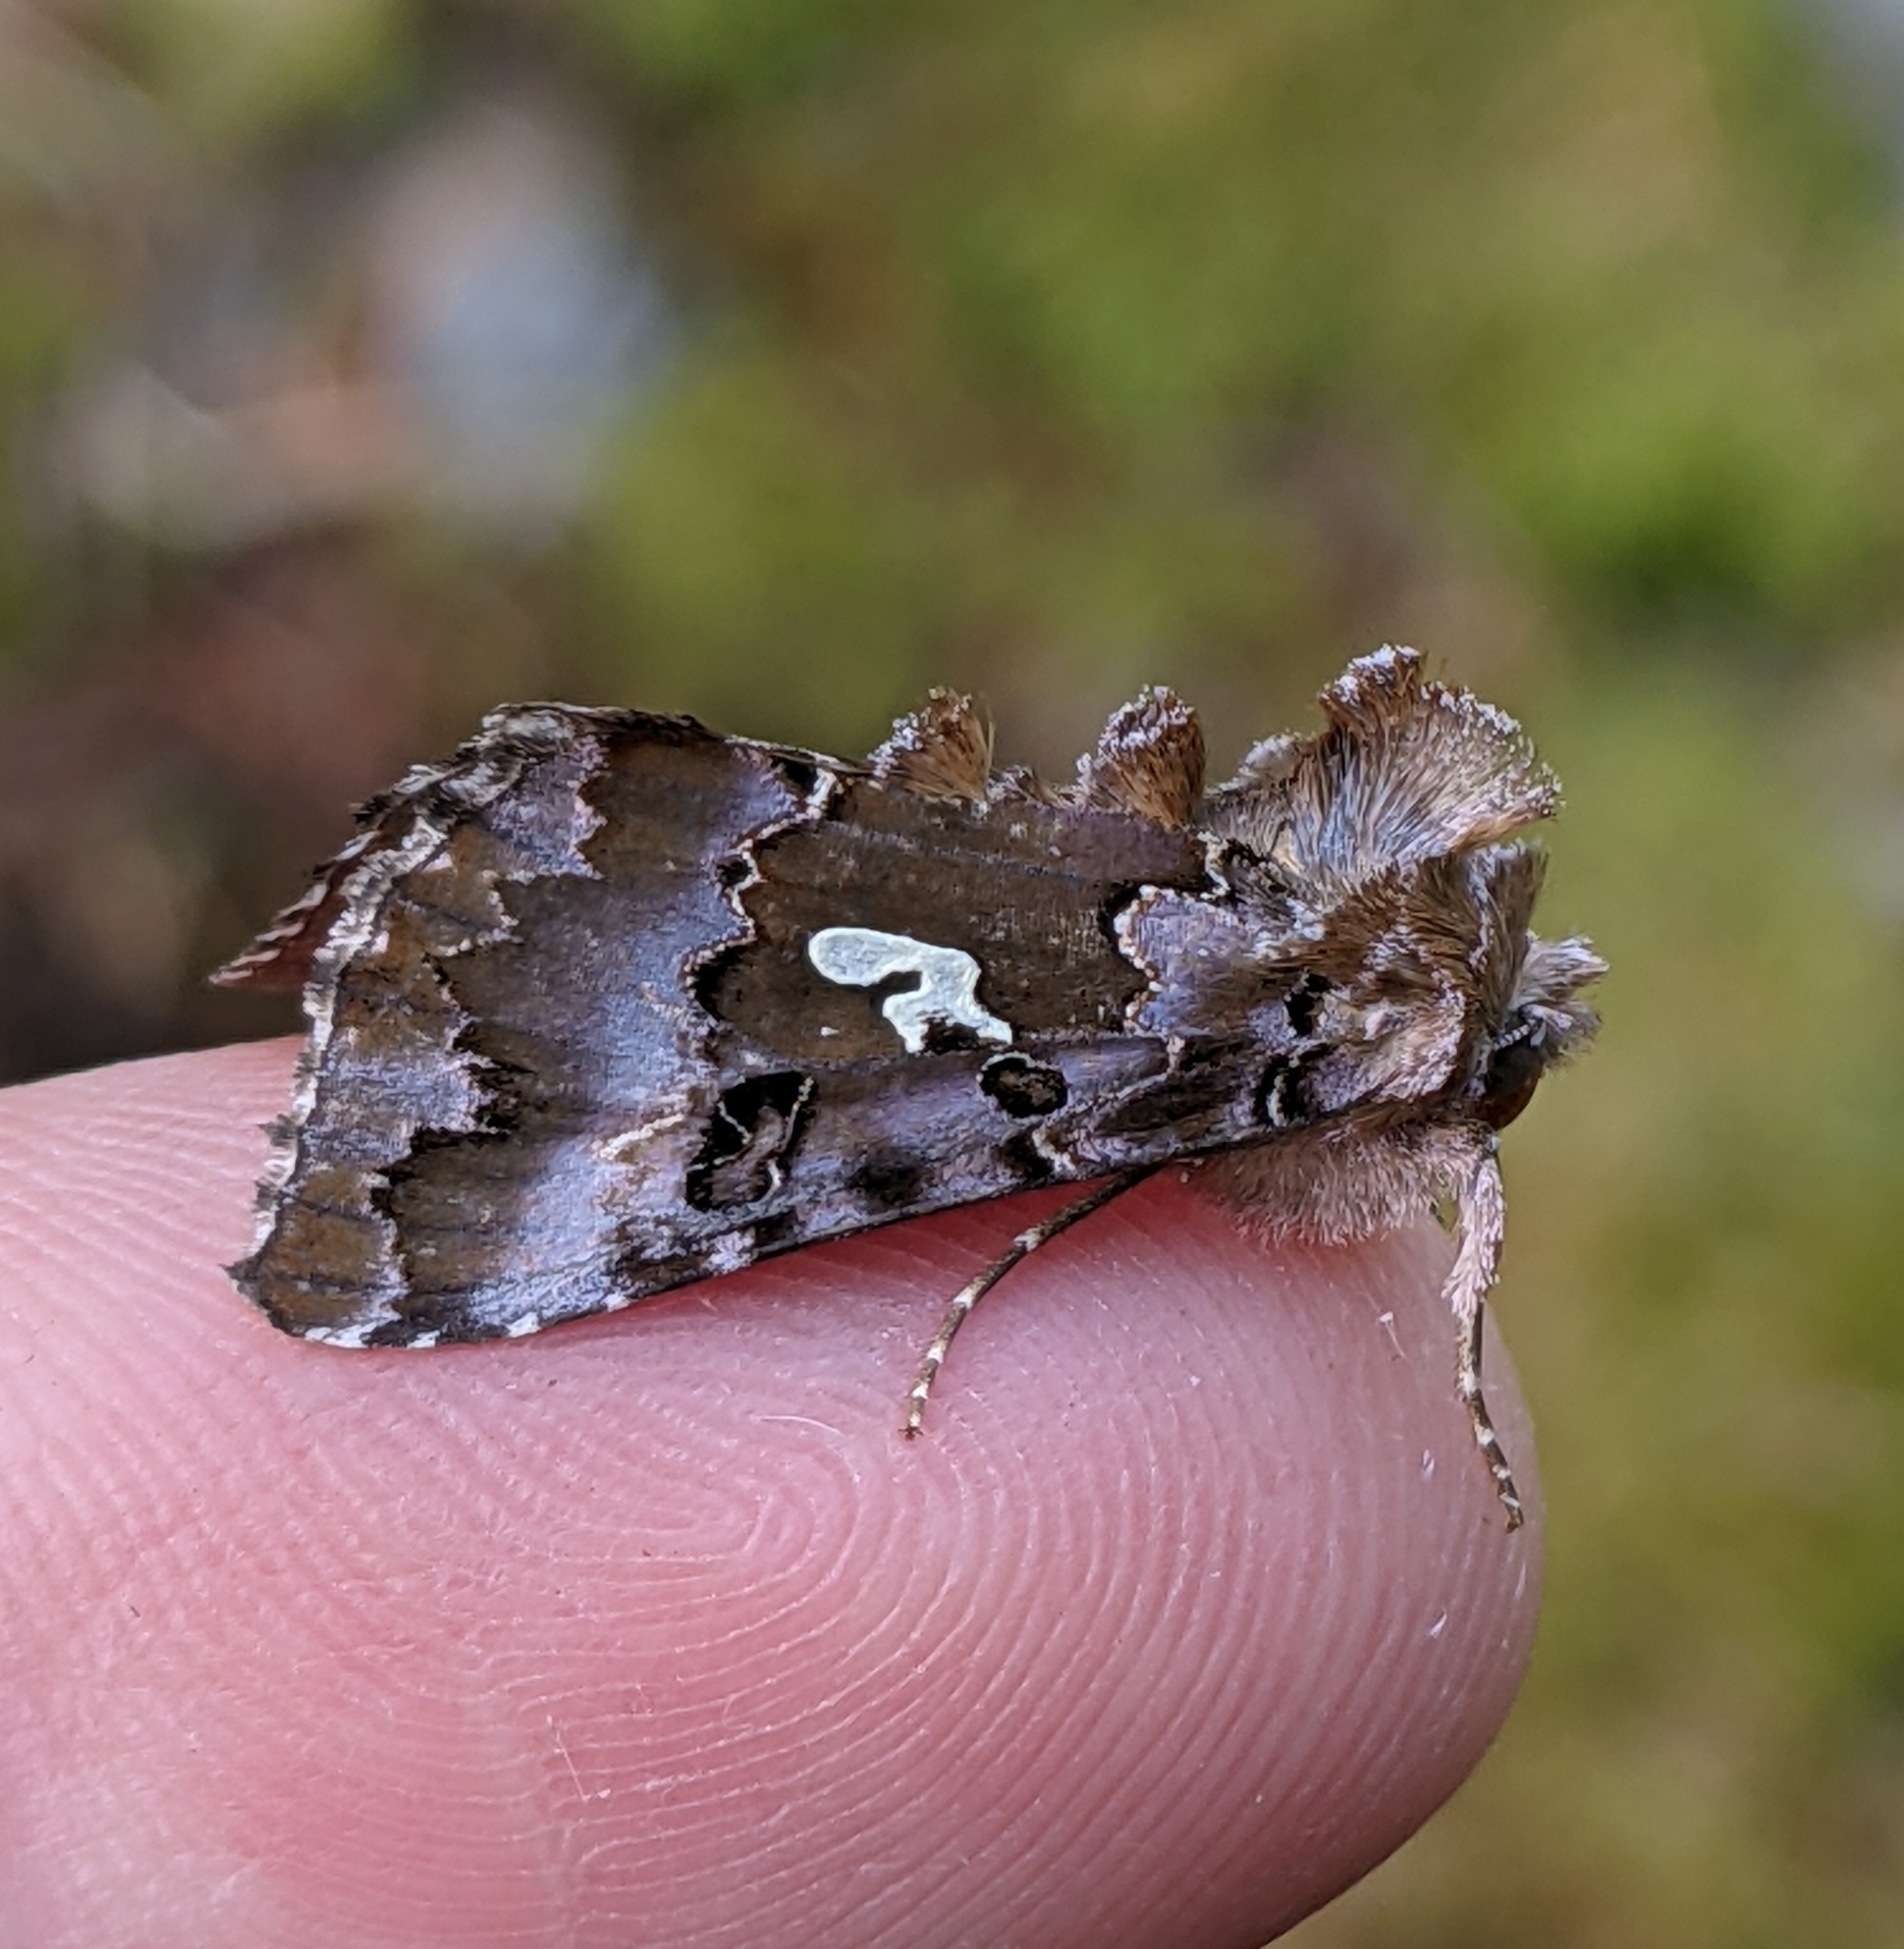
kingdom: Animalia
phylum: Arthropoda
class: Insecta
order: Lepidoptera
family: Noctuidae
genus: Autographa
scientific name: Autographa corusca
